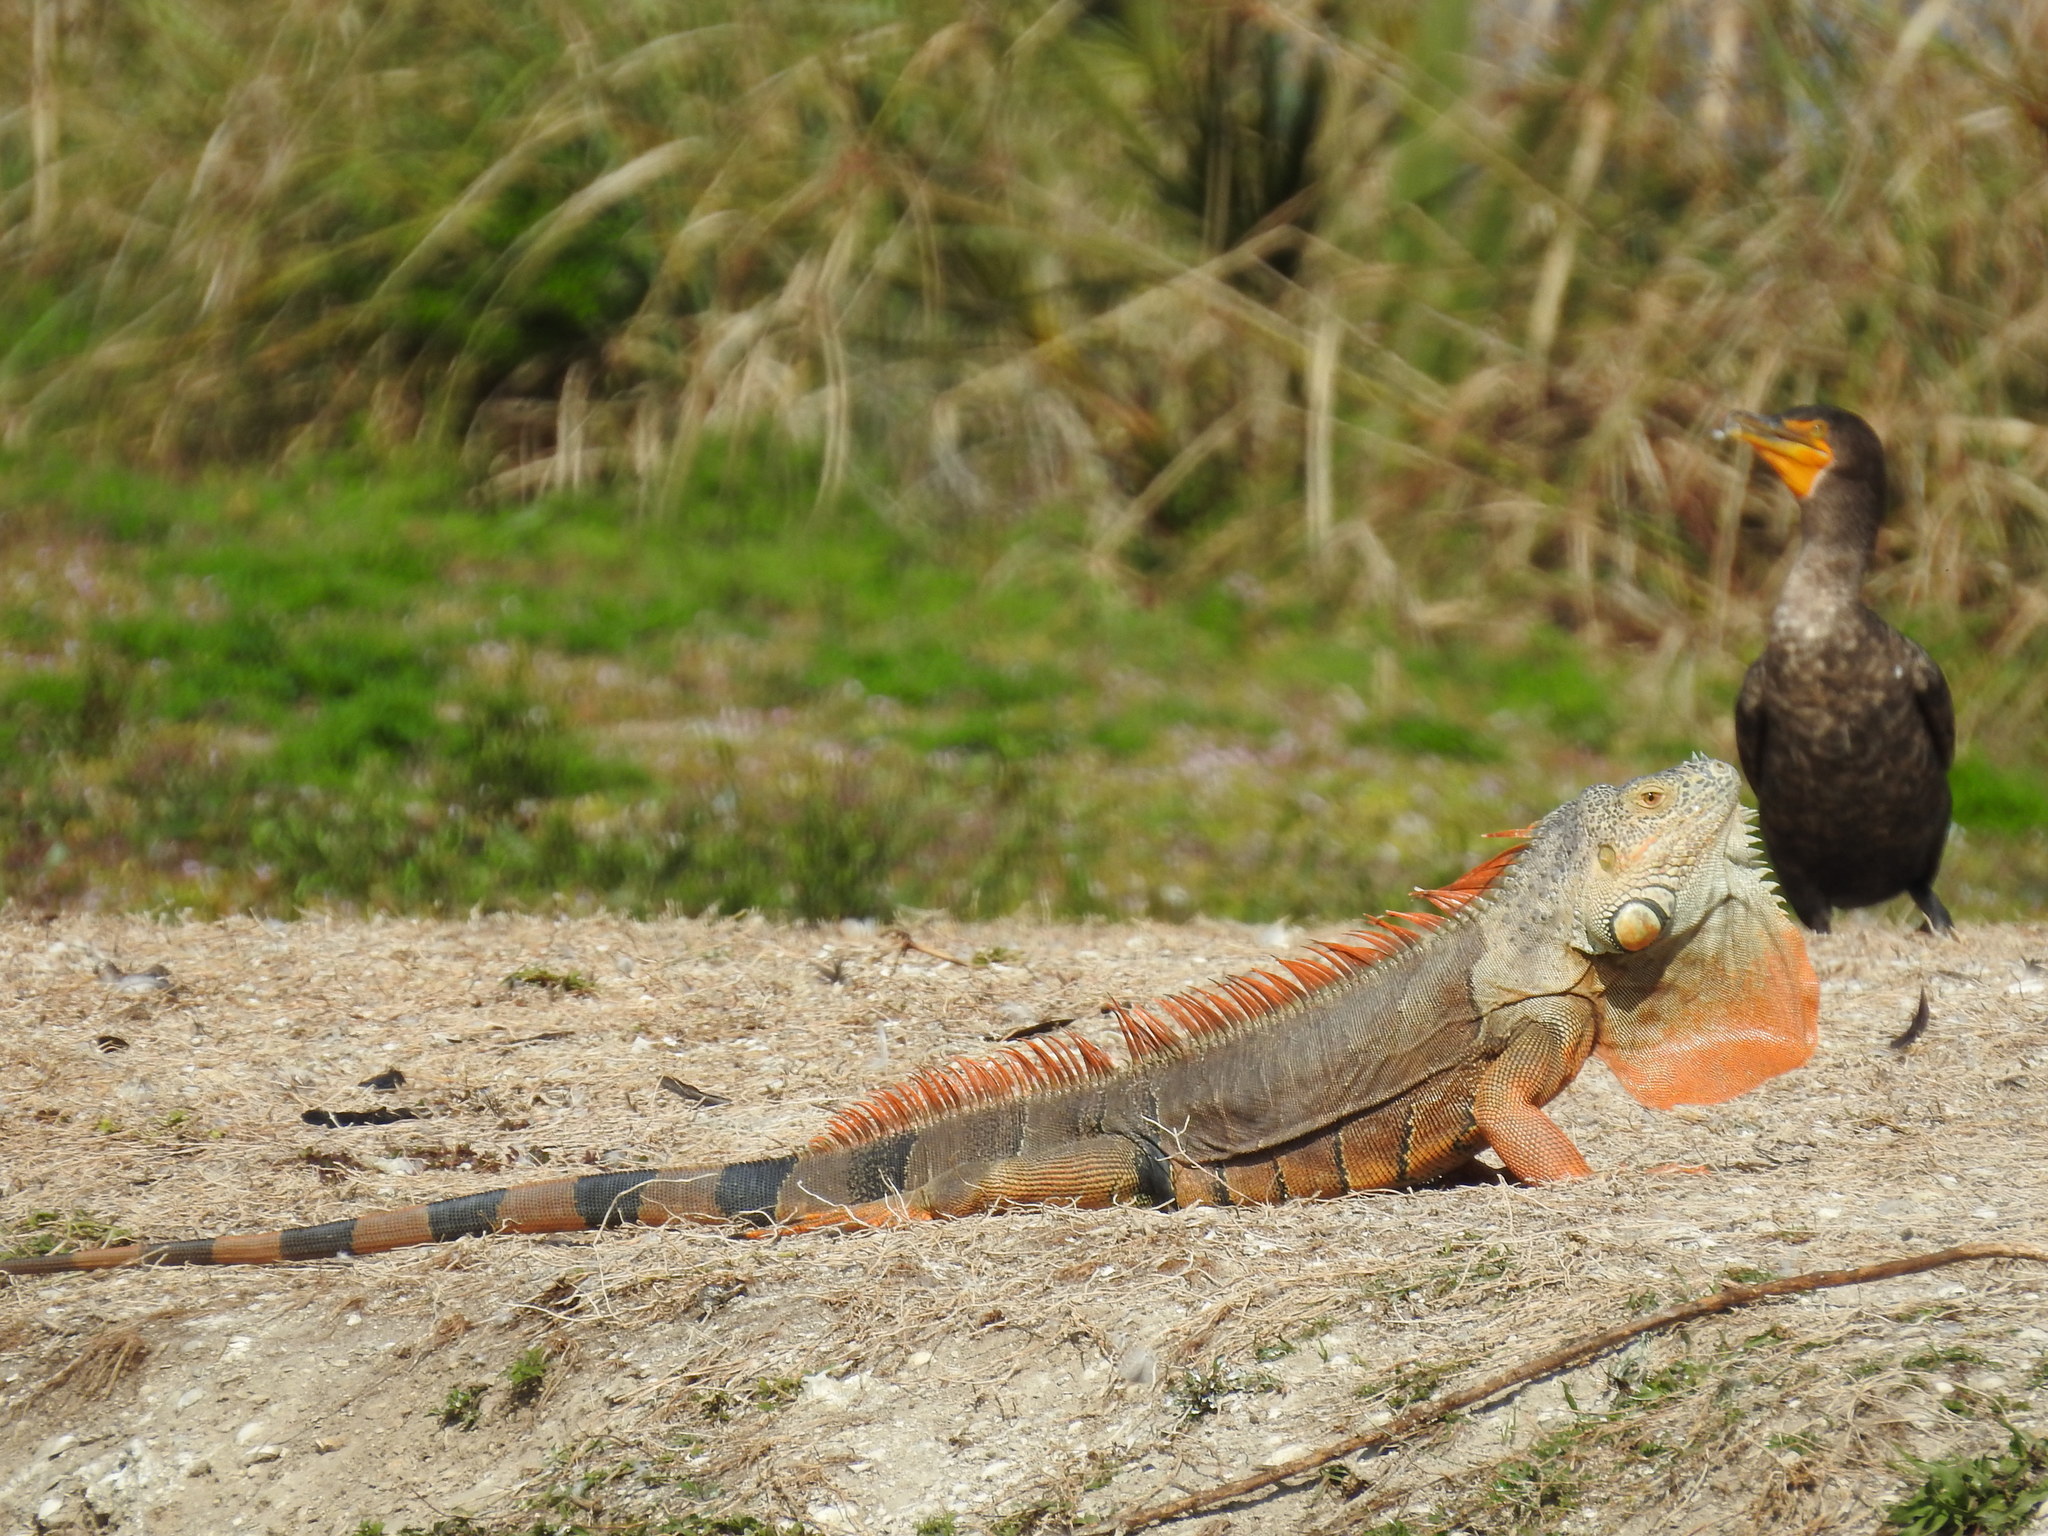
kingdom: Animalia
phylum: Chordata
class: Squamata
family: Iguanidae
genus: Iguana
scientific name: Iguana iguana
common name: Green iguana
